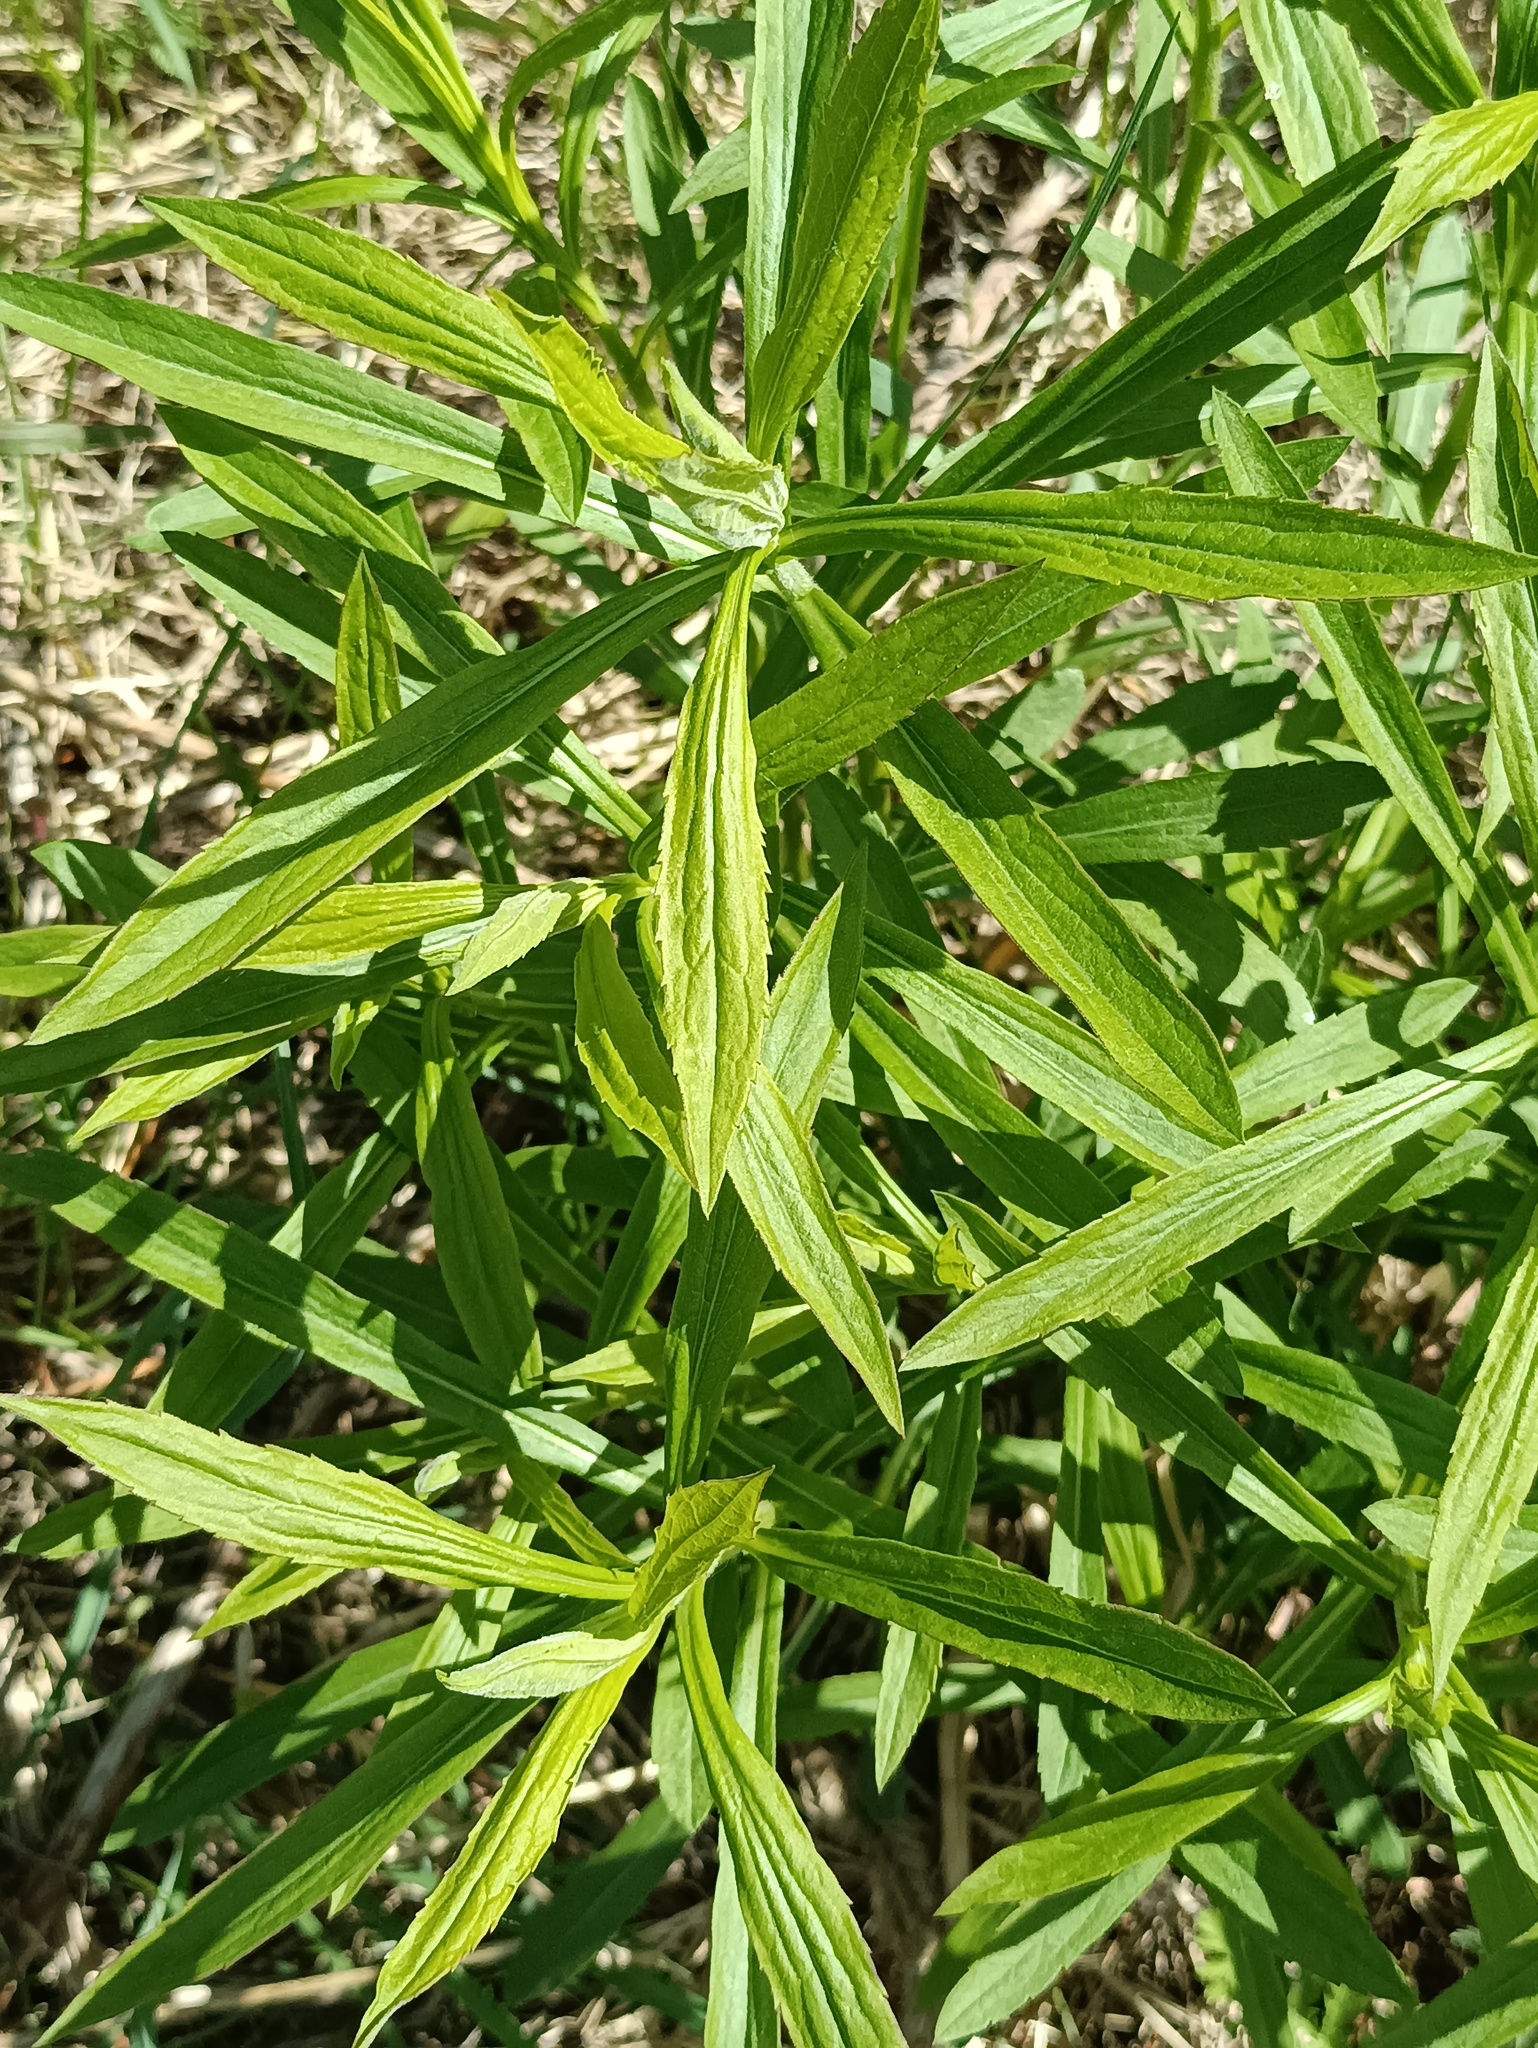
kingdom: Plantae
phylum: Tracheophyta
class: Magnoliopsida
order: Asterales
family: Asteraceae
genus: Solidago
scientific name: Solidago canadensis
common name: Canada goldenrod
